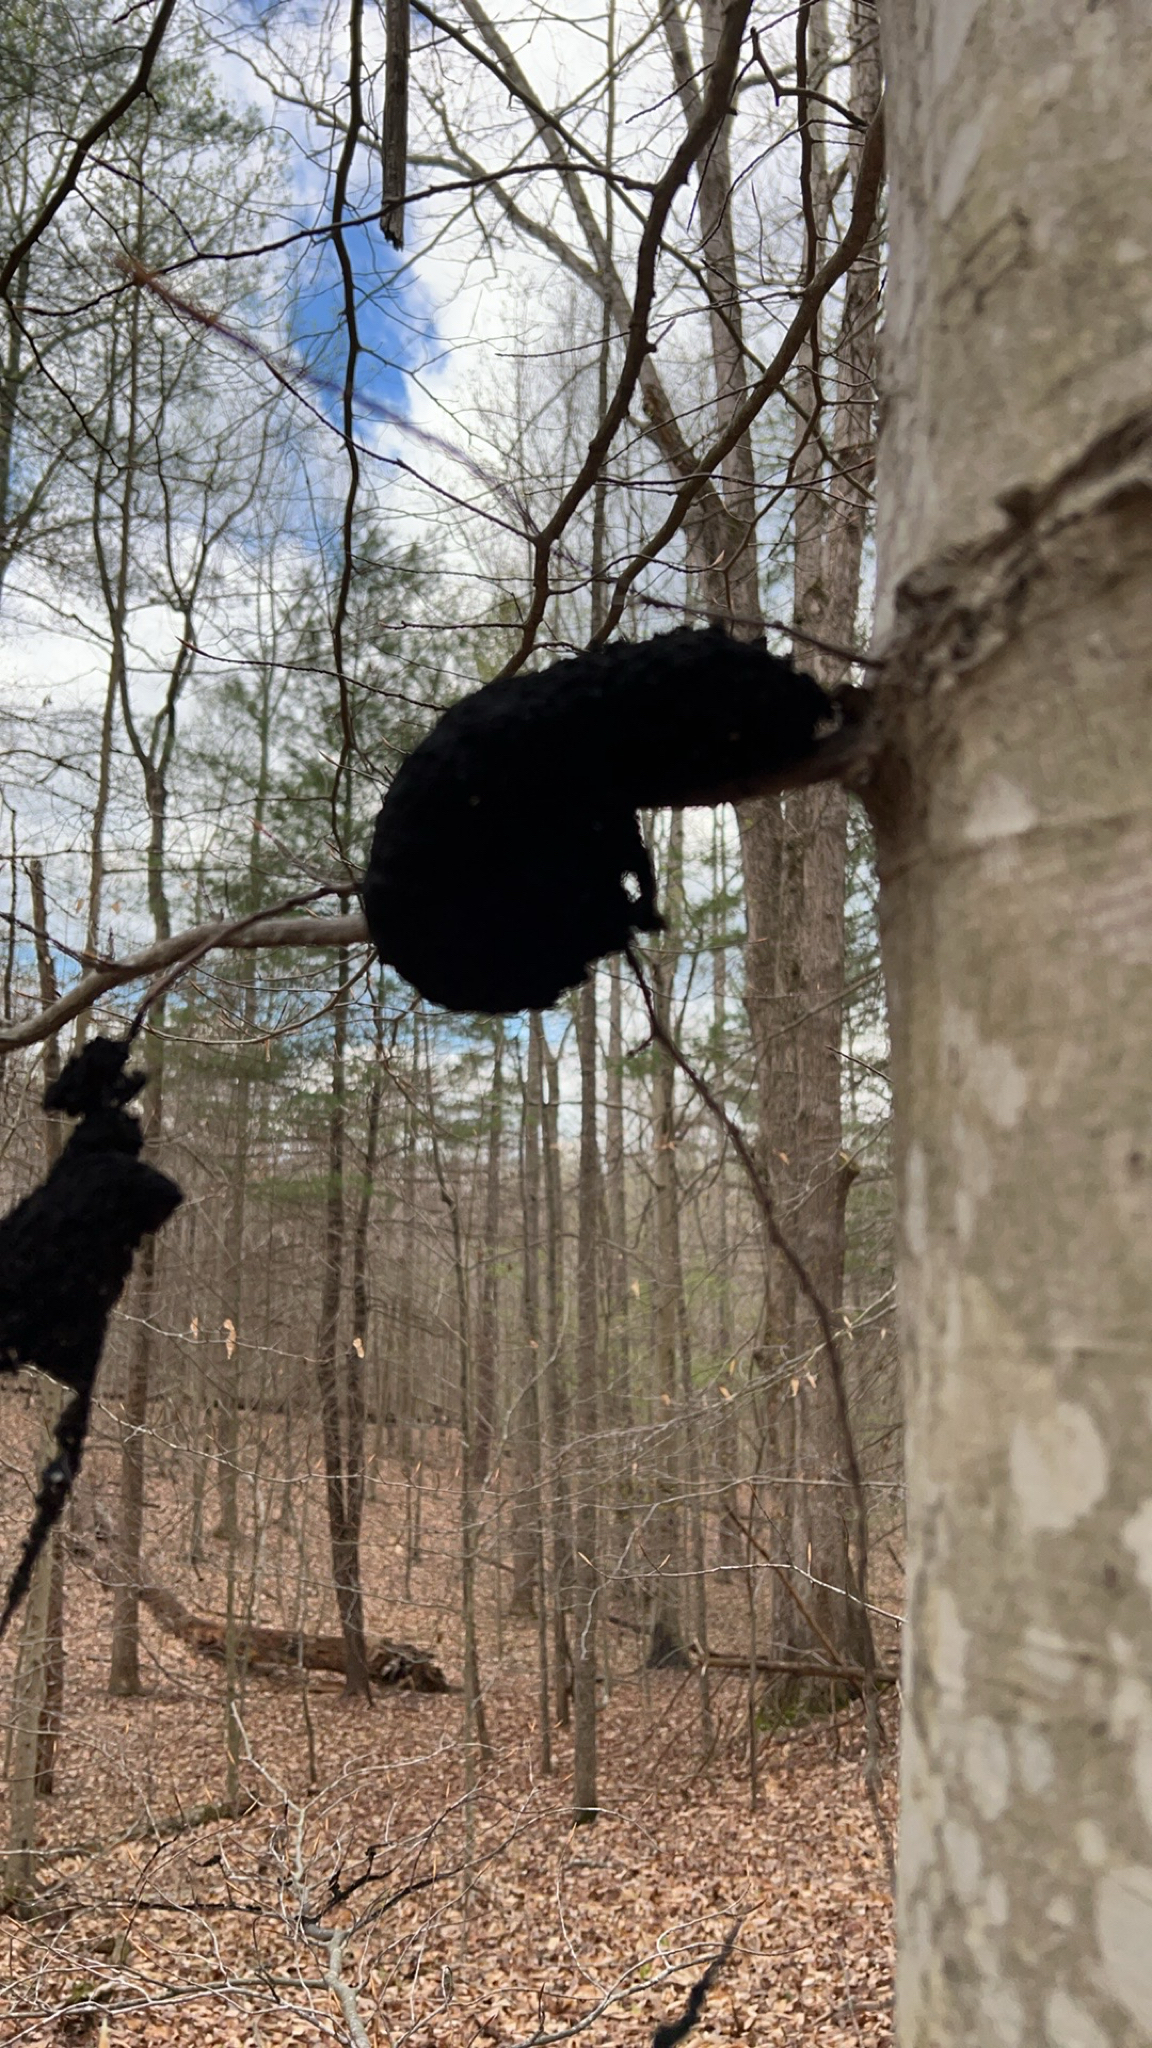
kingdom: Fungi
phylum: Ascomycota
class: Dothideomycetes
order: Capnodiales
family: Capnodiaceae
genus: Scorias
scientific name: Scorias spongiosa
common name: Black sooty mold
